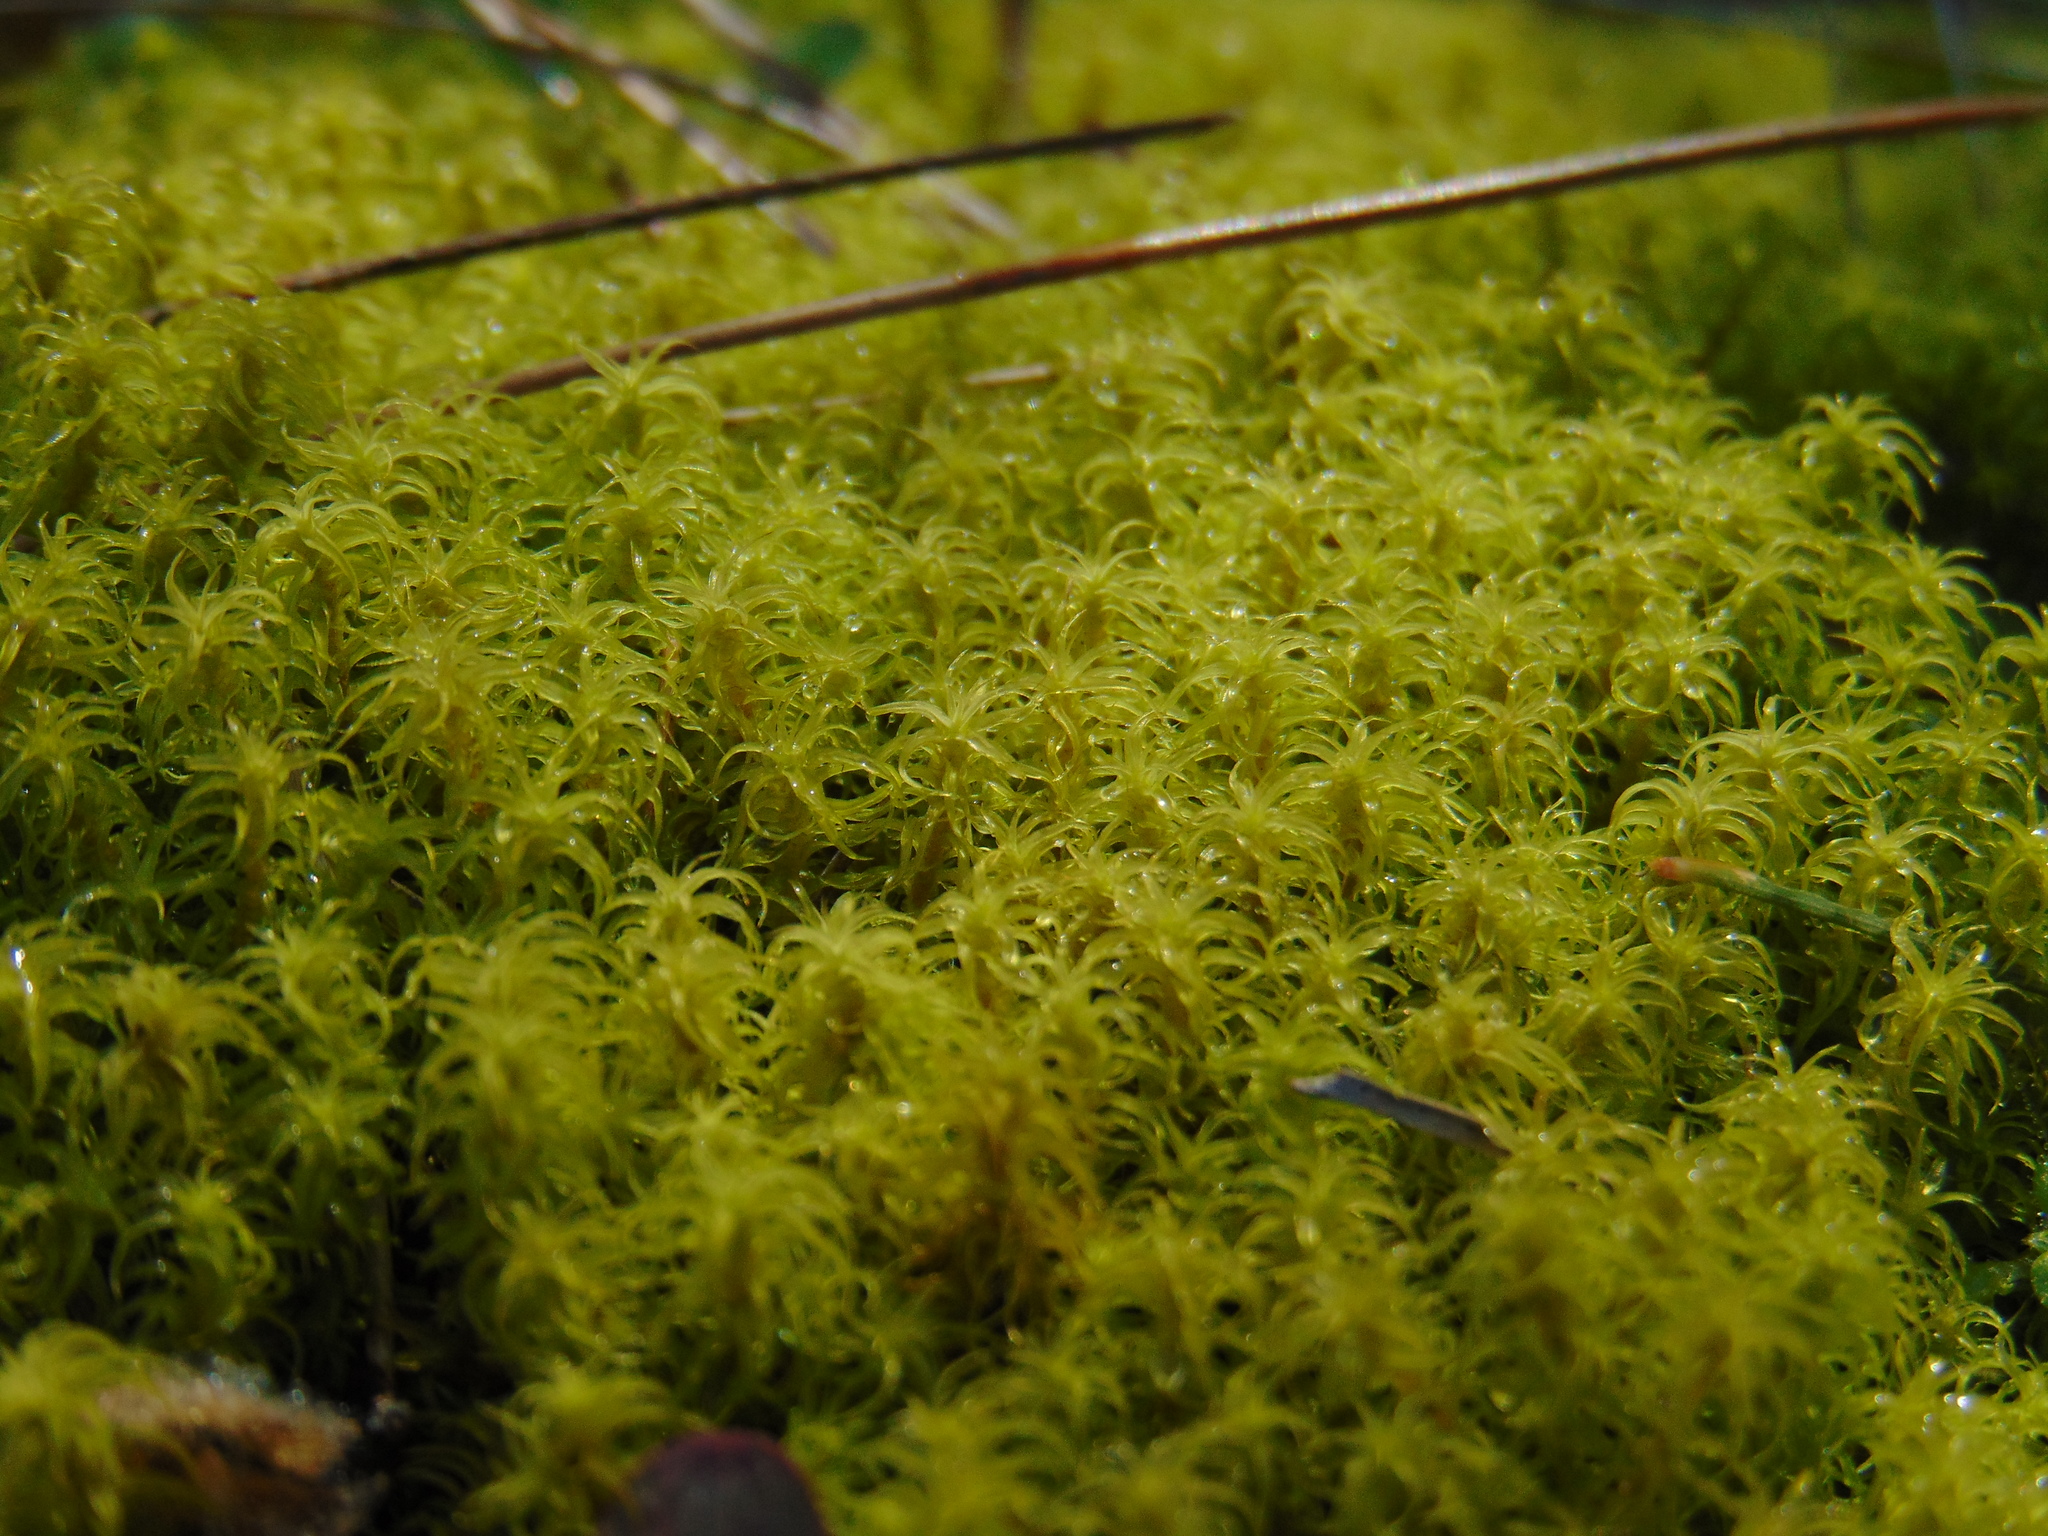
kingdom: Plantae
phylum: Bryophyta
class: Bryopsida
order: Pottiales
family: Pottiaceae
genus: Pleurochaete
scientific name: Pleurochaete squarrosa
